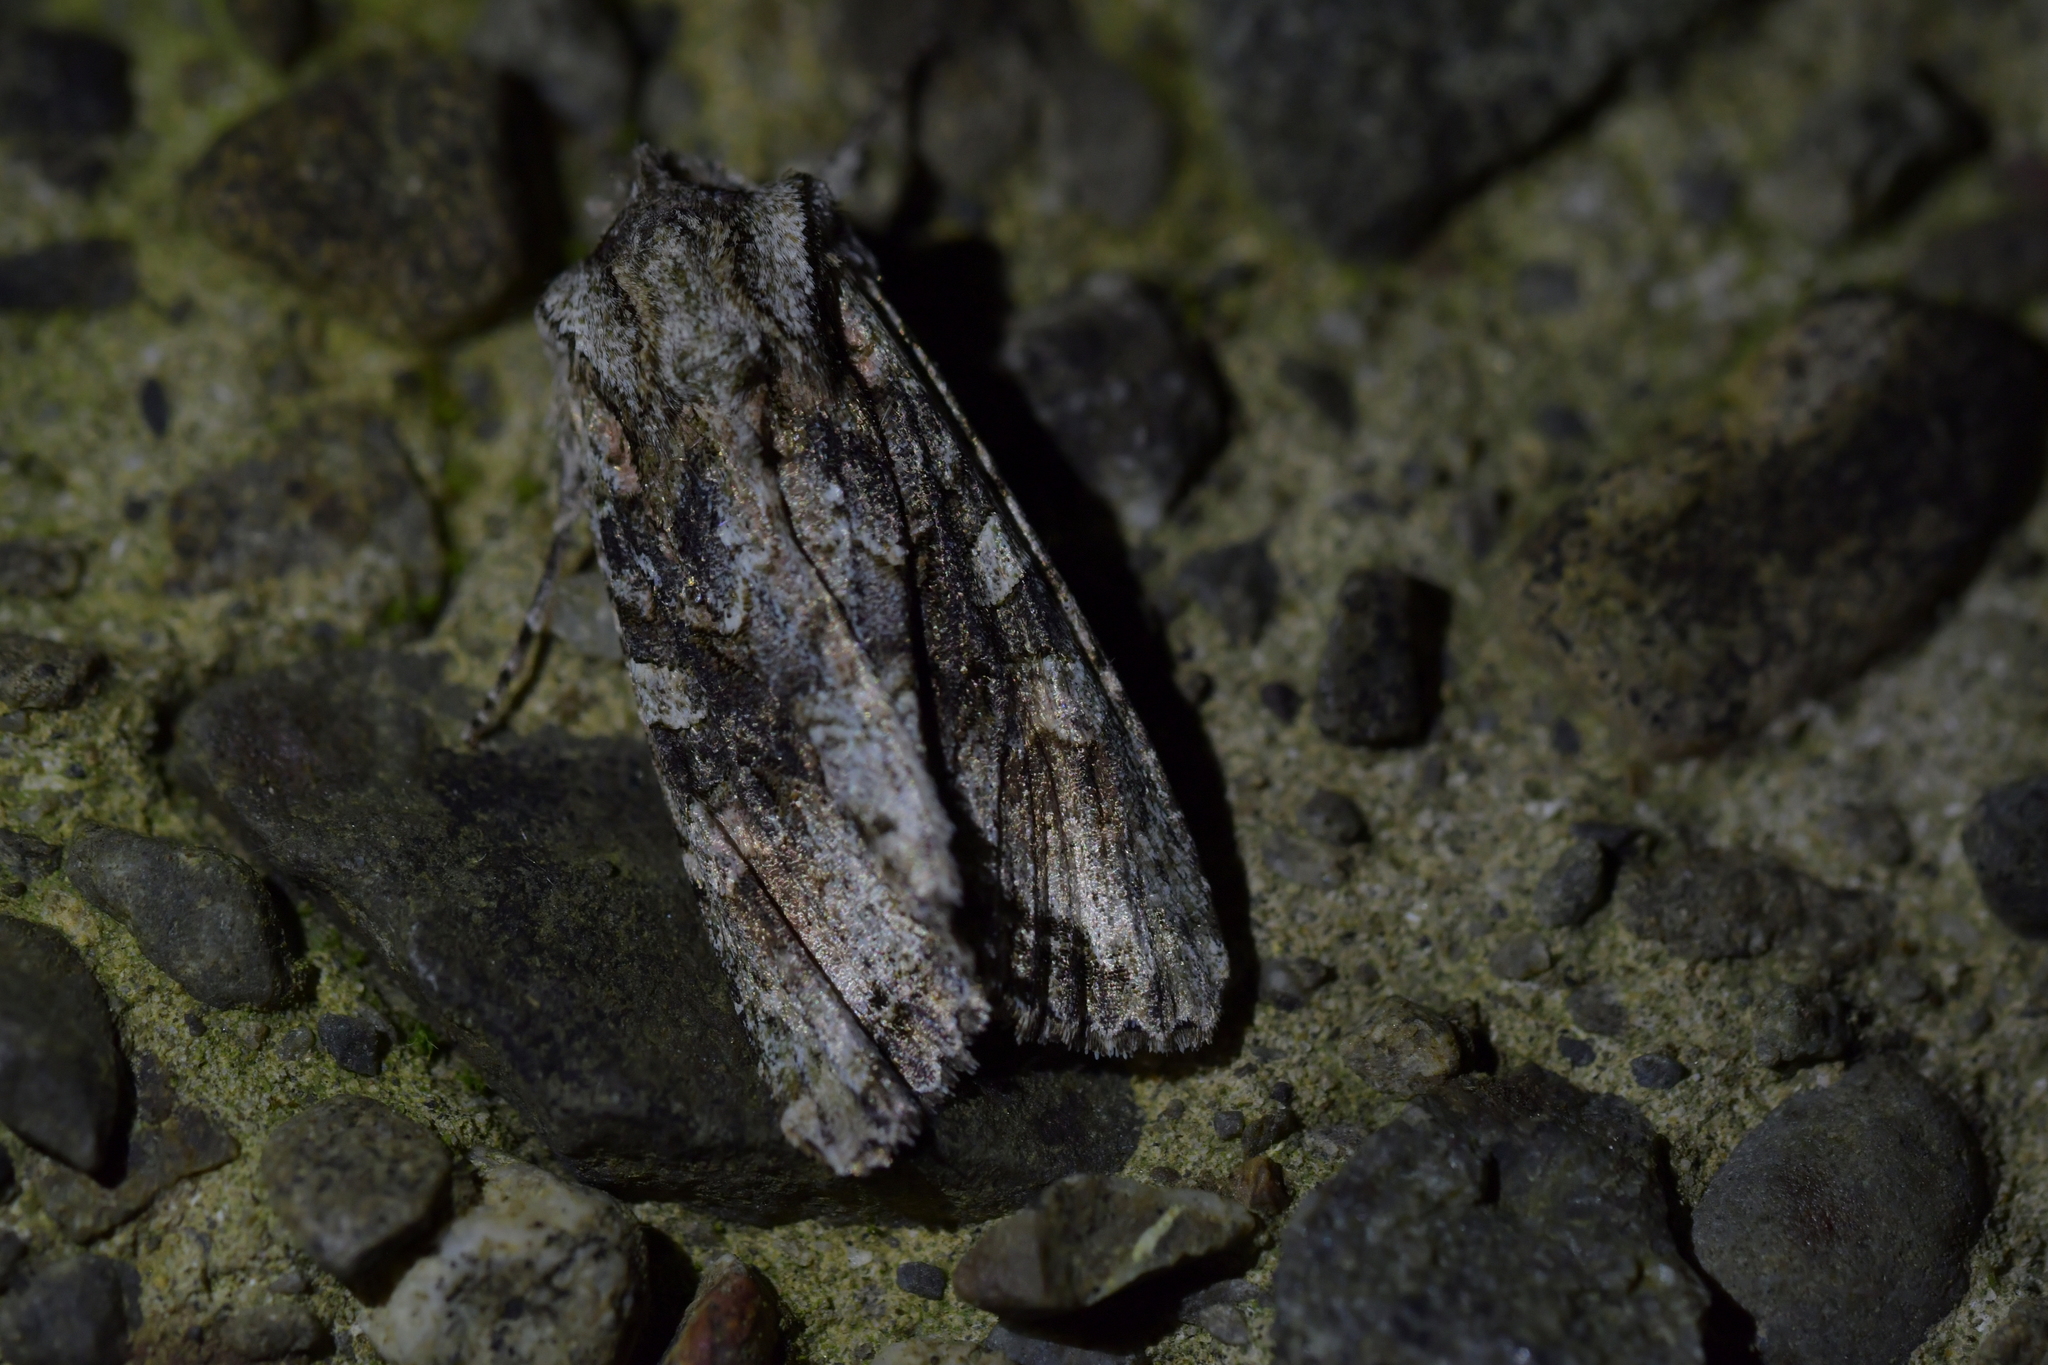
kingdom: Animalia
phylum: Arthropoda
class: Insecta
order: Lepidoptera
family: Noctuidae
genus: Ichneutica
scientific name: Ichneutica mutans
